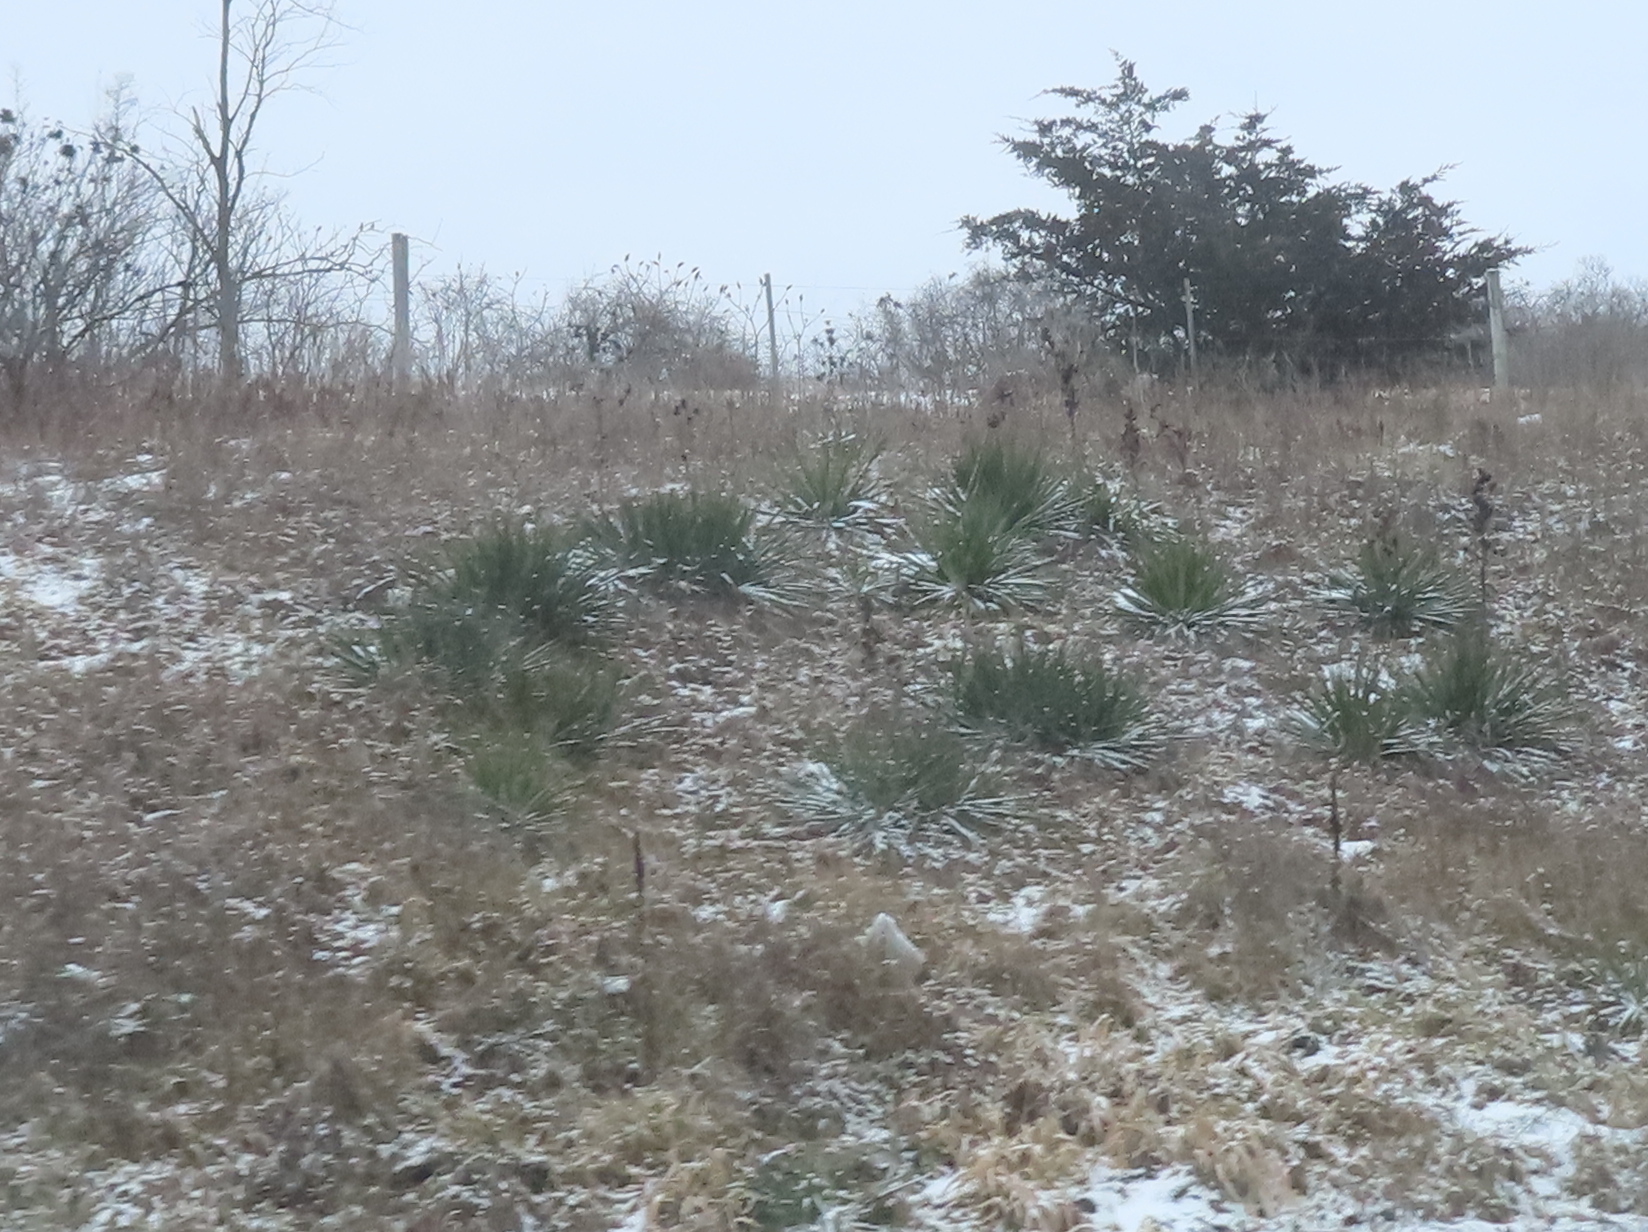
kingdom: Plantae
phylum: Tracheophyta
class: Liliopsida
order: Asparagales
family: Asparagaceae
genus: Yucca
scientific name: Yucca flaccida
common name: Adam's-needle
